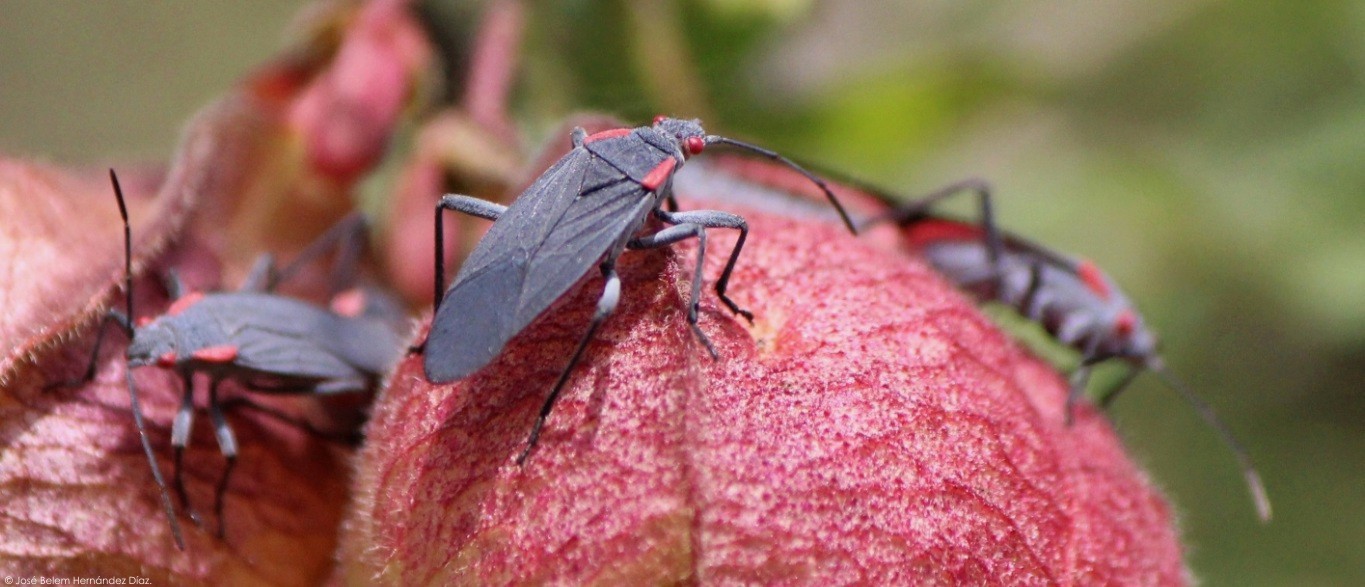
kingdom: Animalia
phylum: Arthropoda
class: Insecta
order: Hemiptera
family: Rhopalidae
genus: Jadera
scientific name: Jadera haematoloma
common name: Red-shouldered bug
